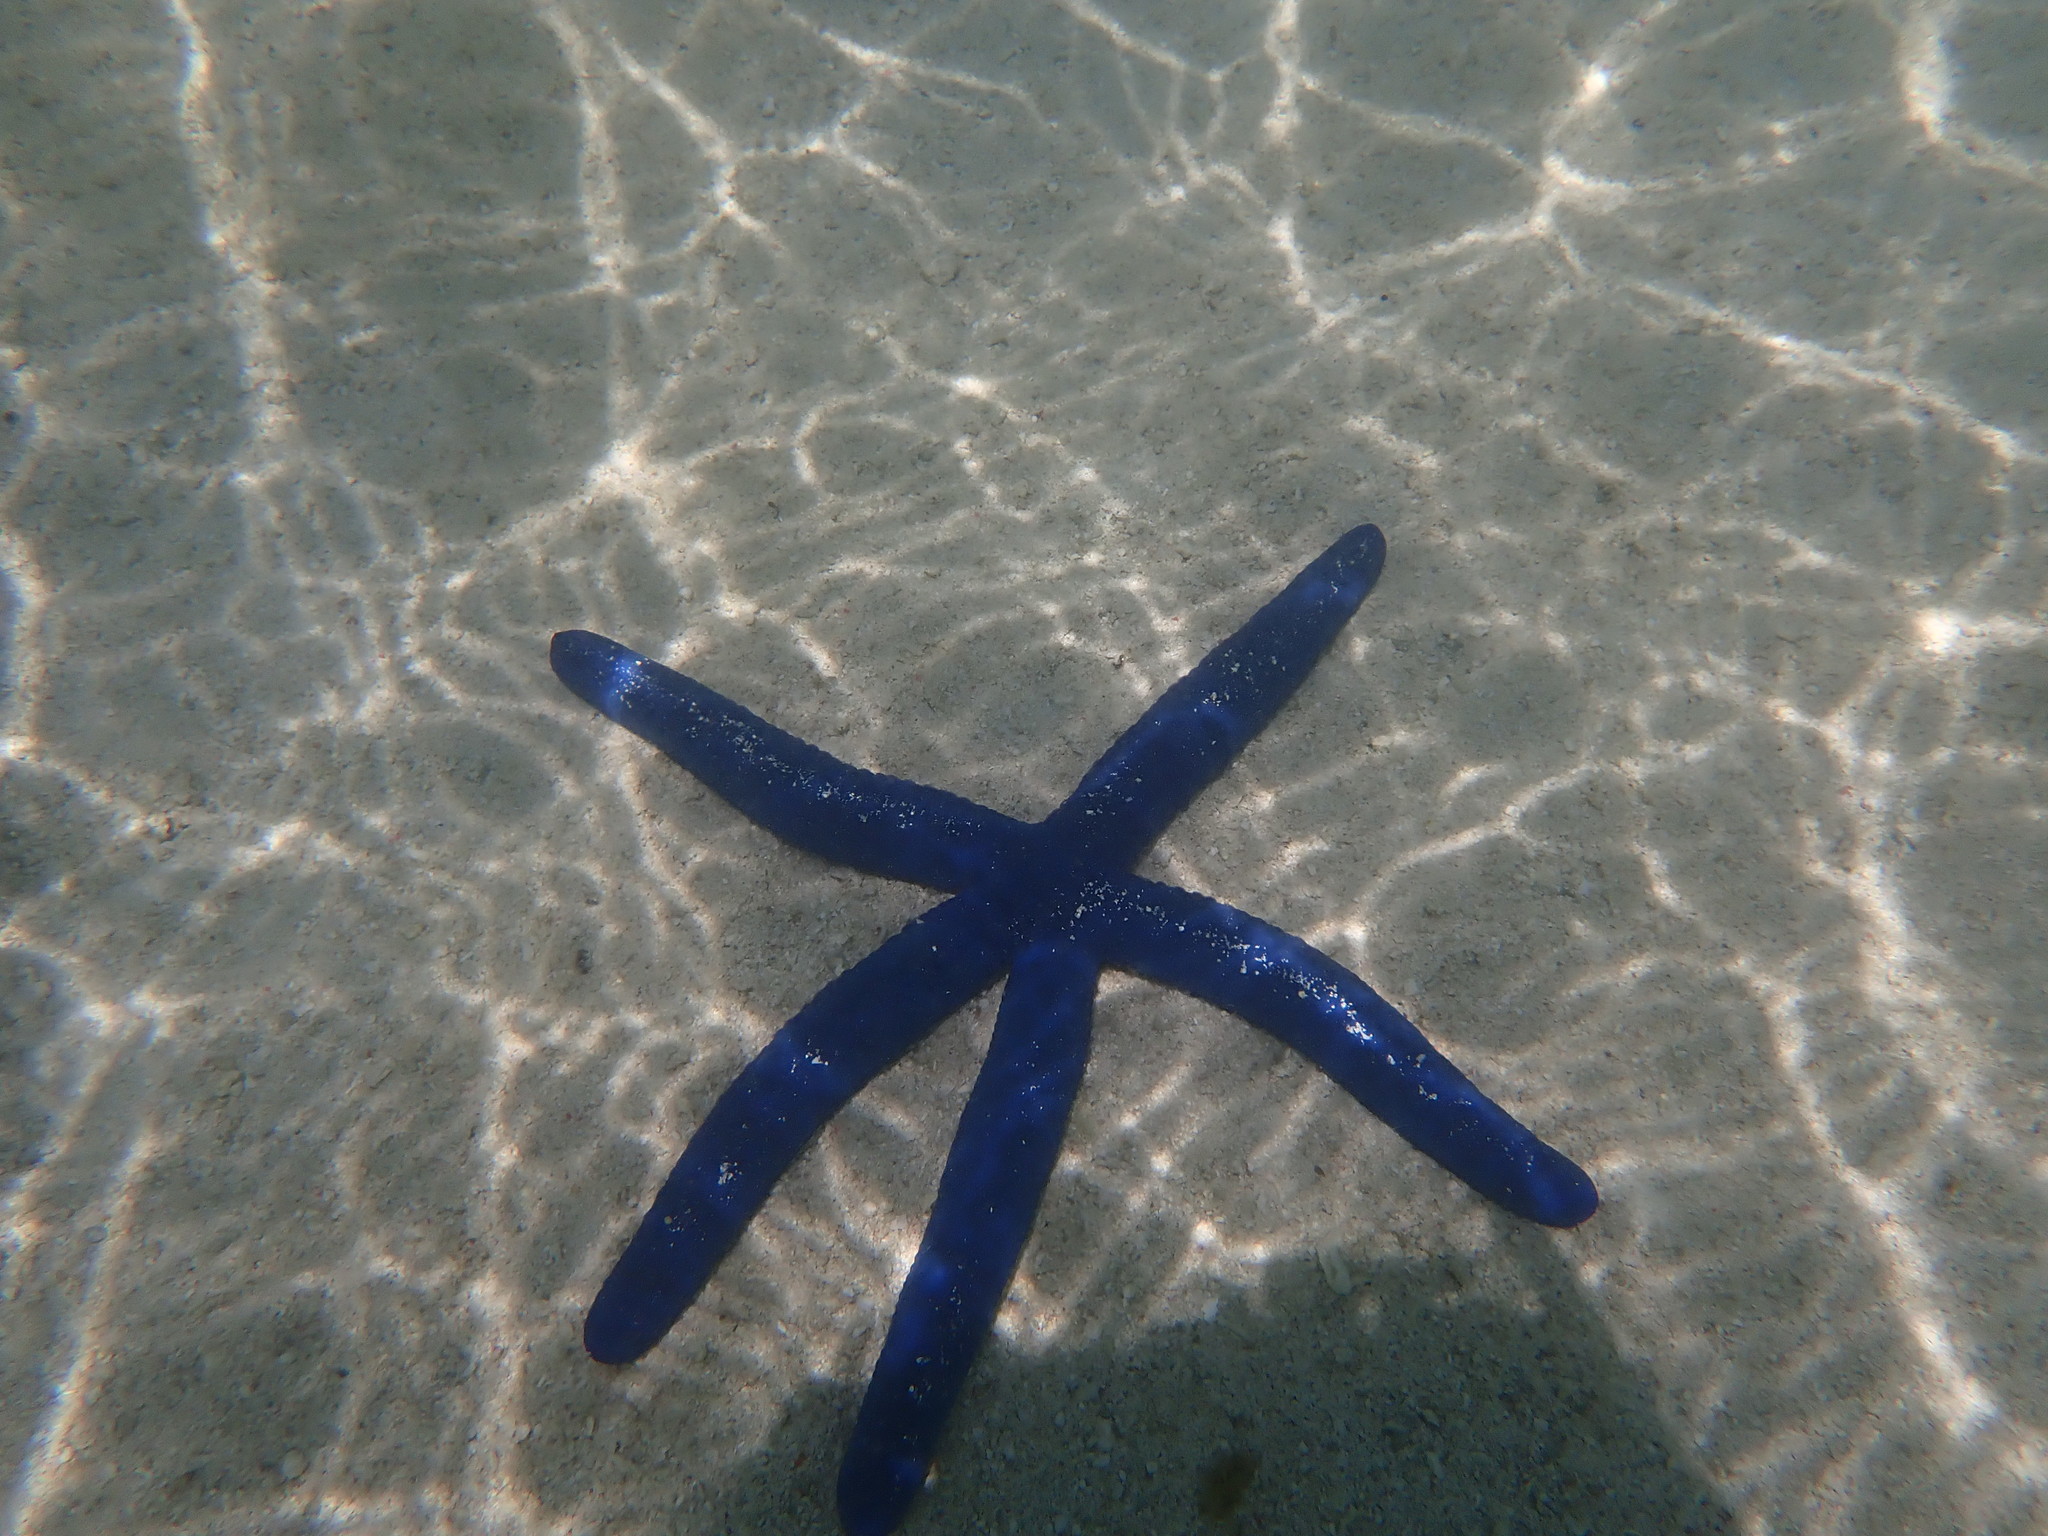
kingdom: Animalia
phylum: Echinodermata
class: Asteroidea
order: Valvatida
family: Ophidiasteridae
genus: Linckia
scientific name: Linckia laevigata
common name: Azure sea star
